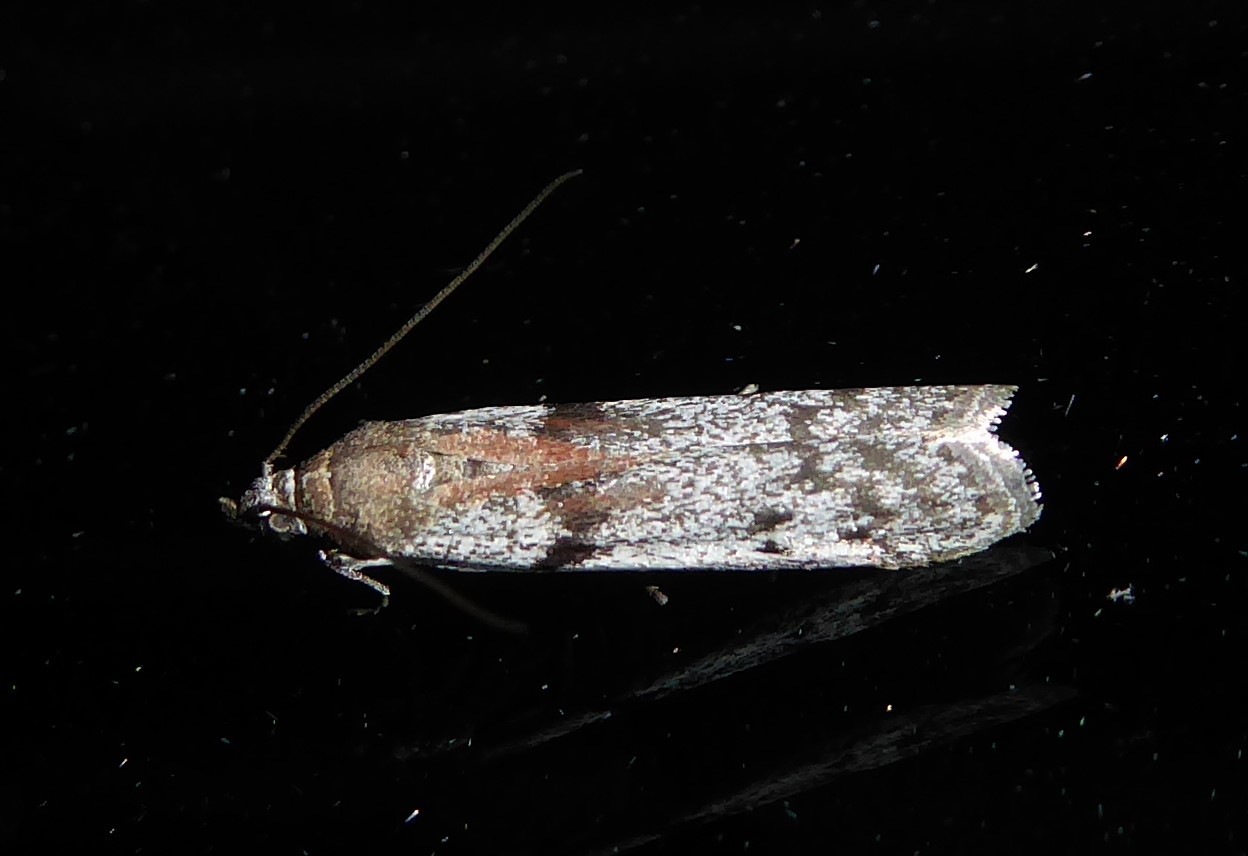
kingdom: Animalia
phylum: Arthropoda
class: Insecta
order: Lepidoptera
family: Pyralidae
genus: Patagoniodes
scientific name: Patagoniodes farinaria
